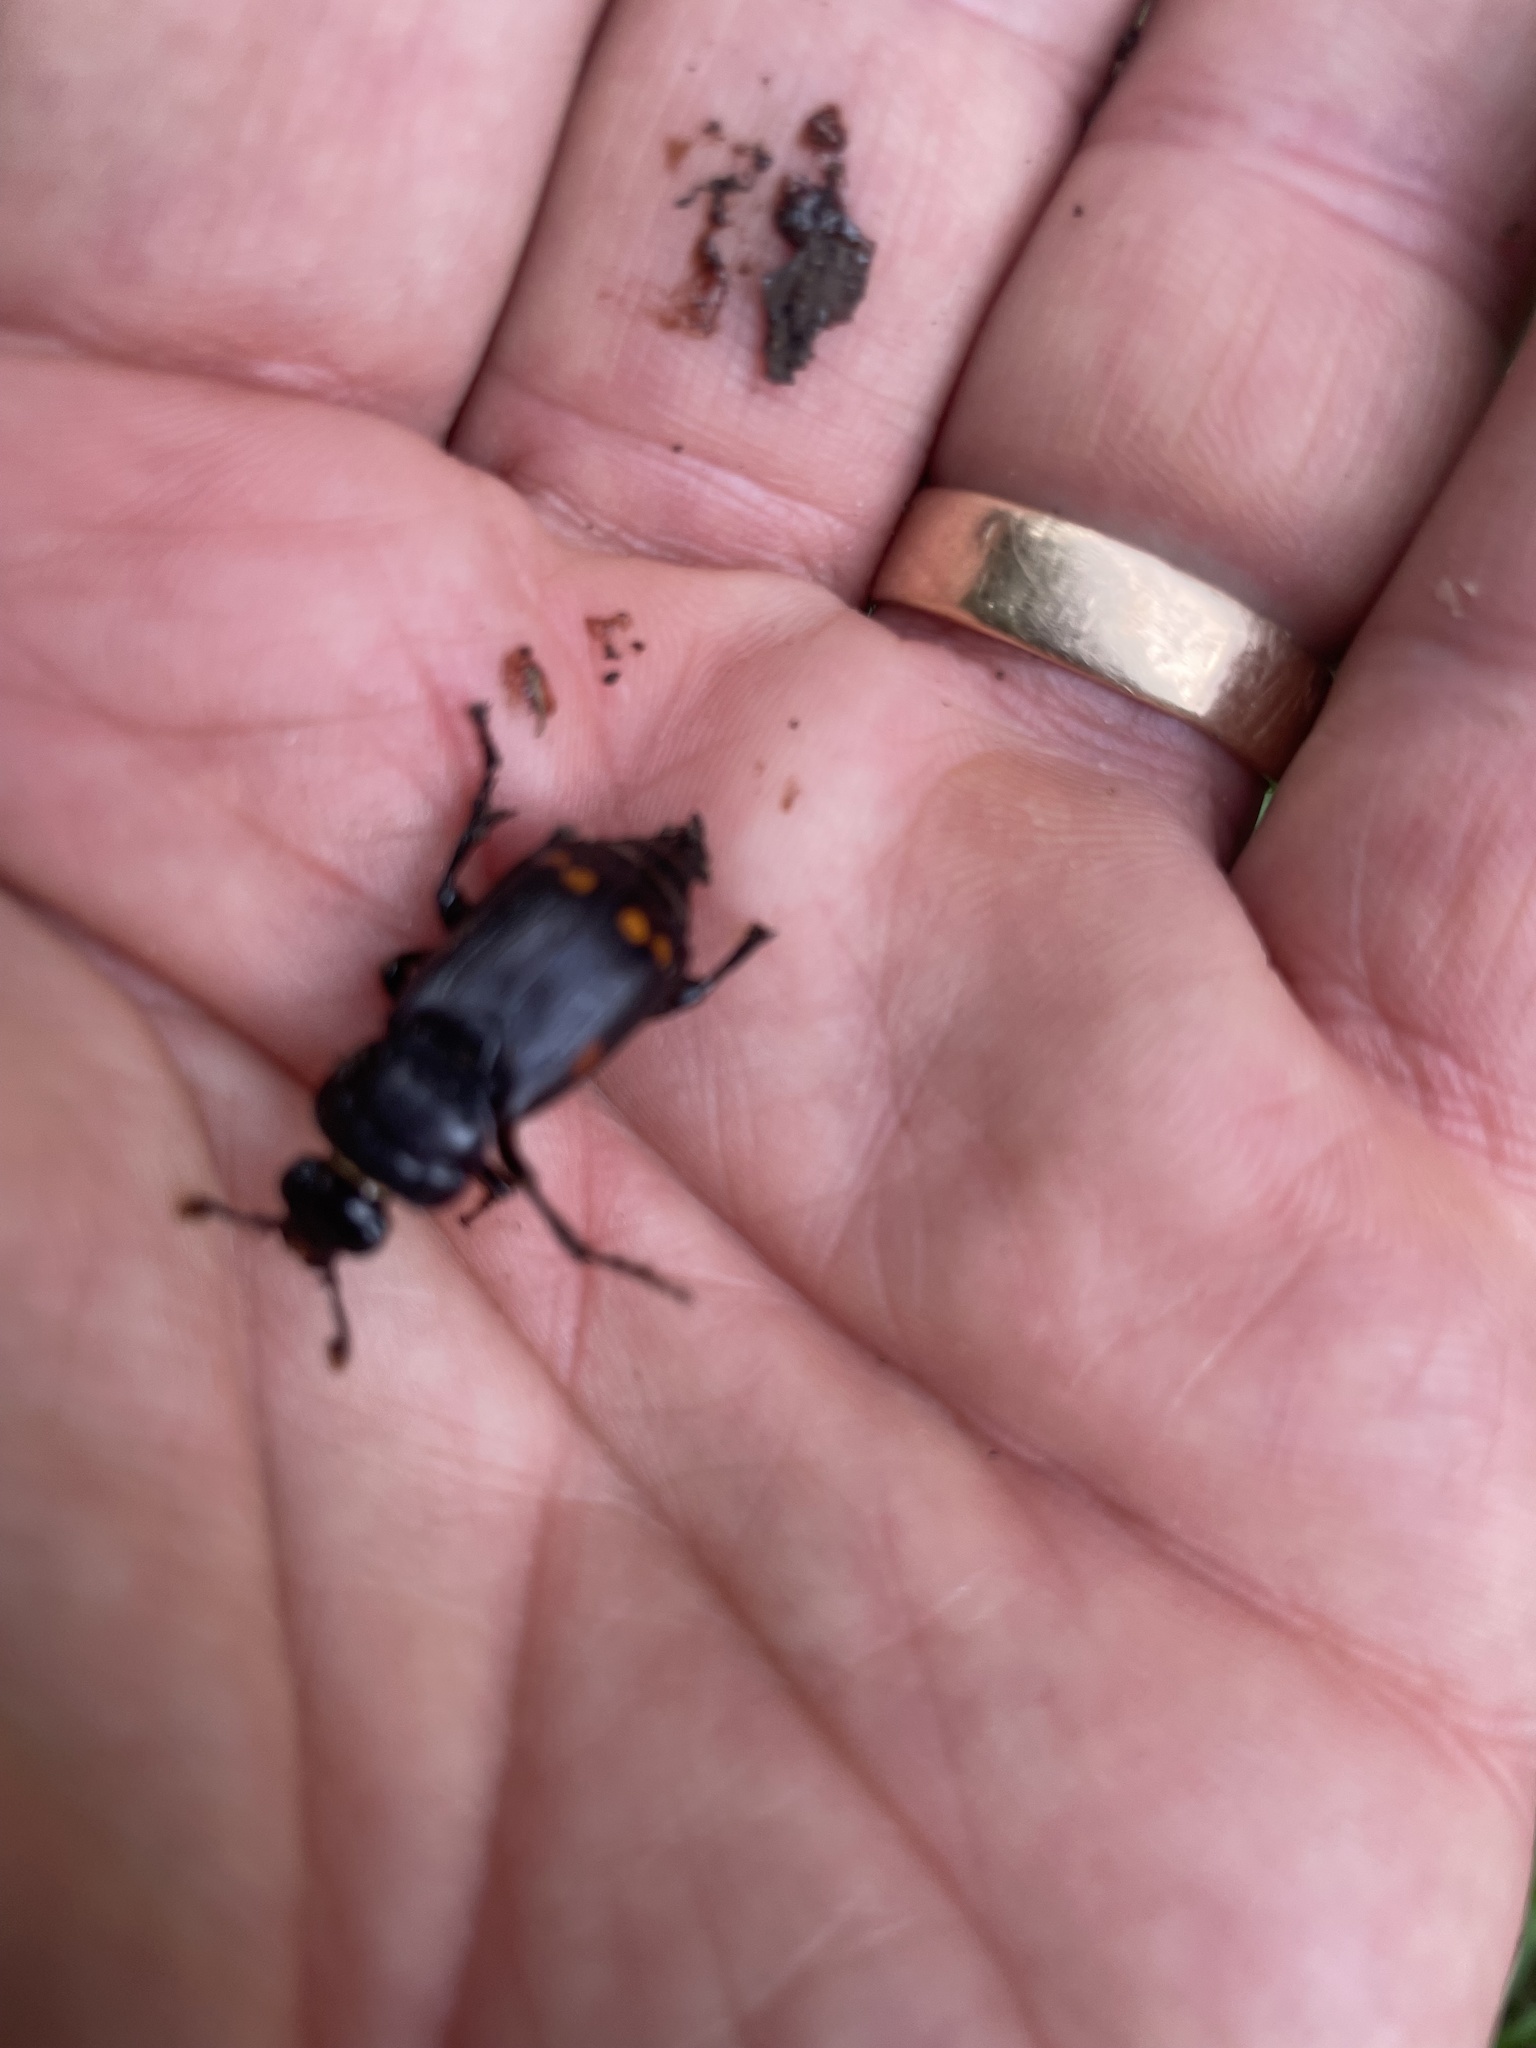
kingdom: Animalia
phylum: Arthropoda
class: Insecta
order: Coleoptera
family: Staphylinidae
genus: Nicrophorus
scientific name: Nicrophorus pustulatus
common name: Pustulated carrion beetle
